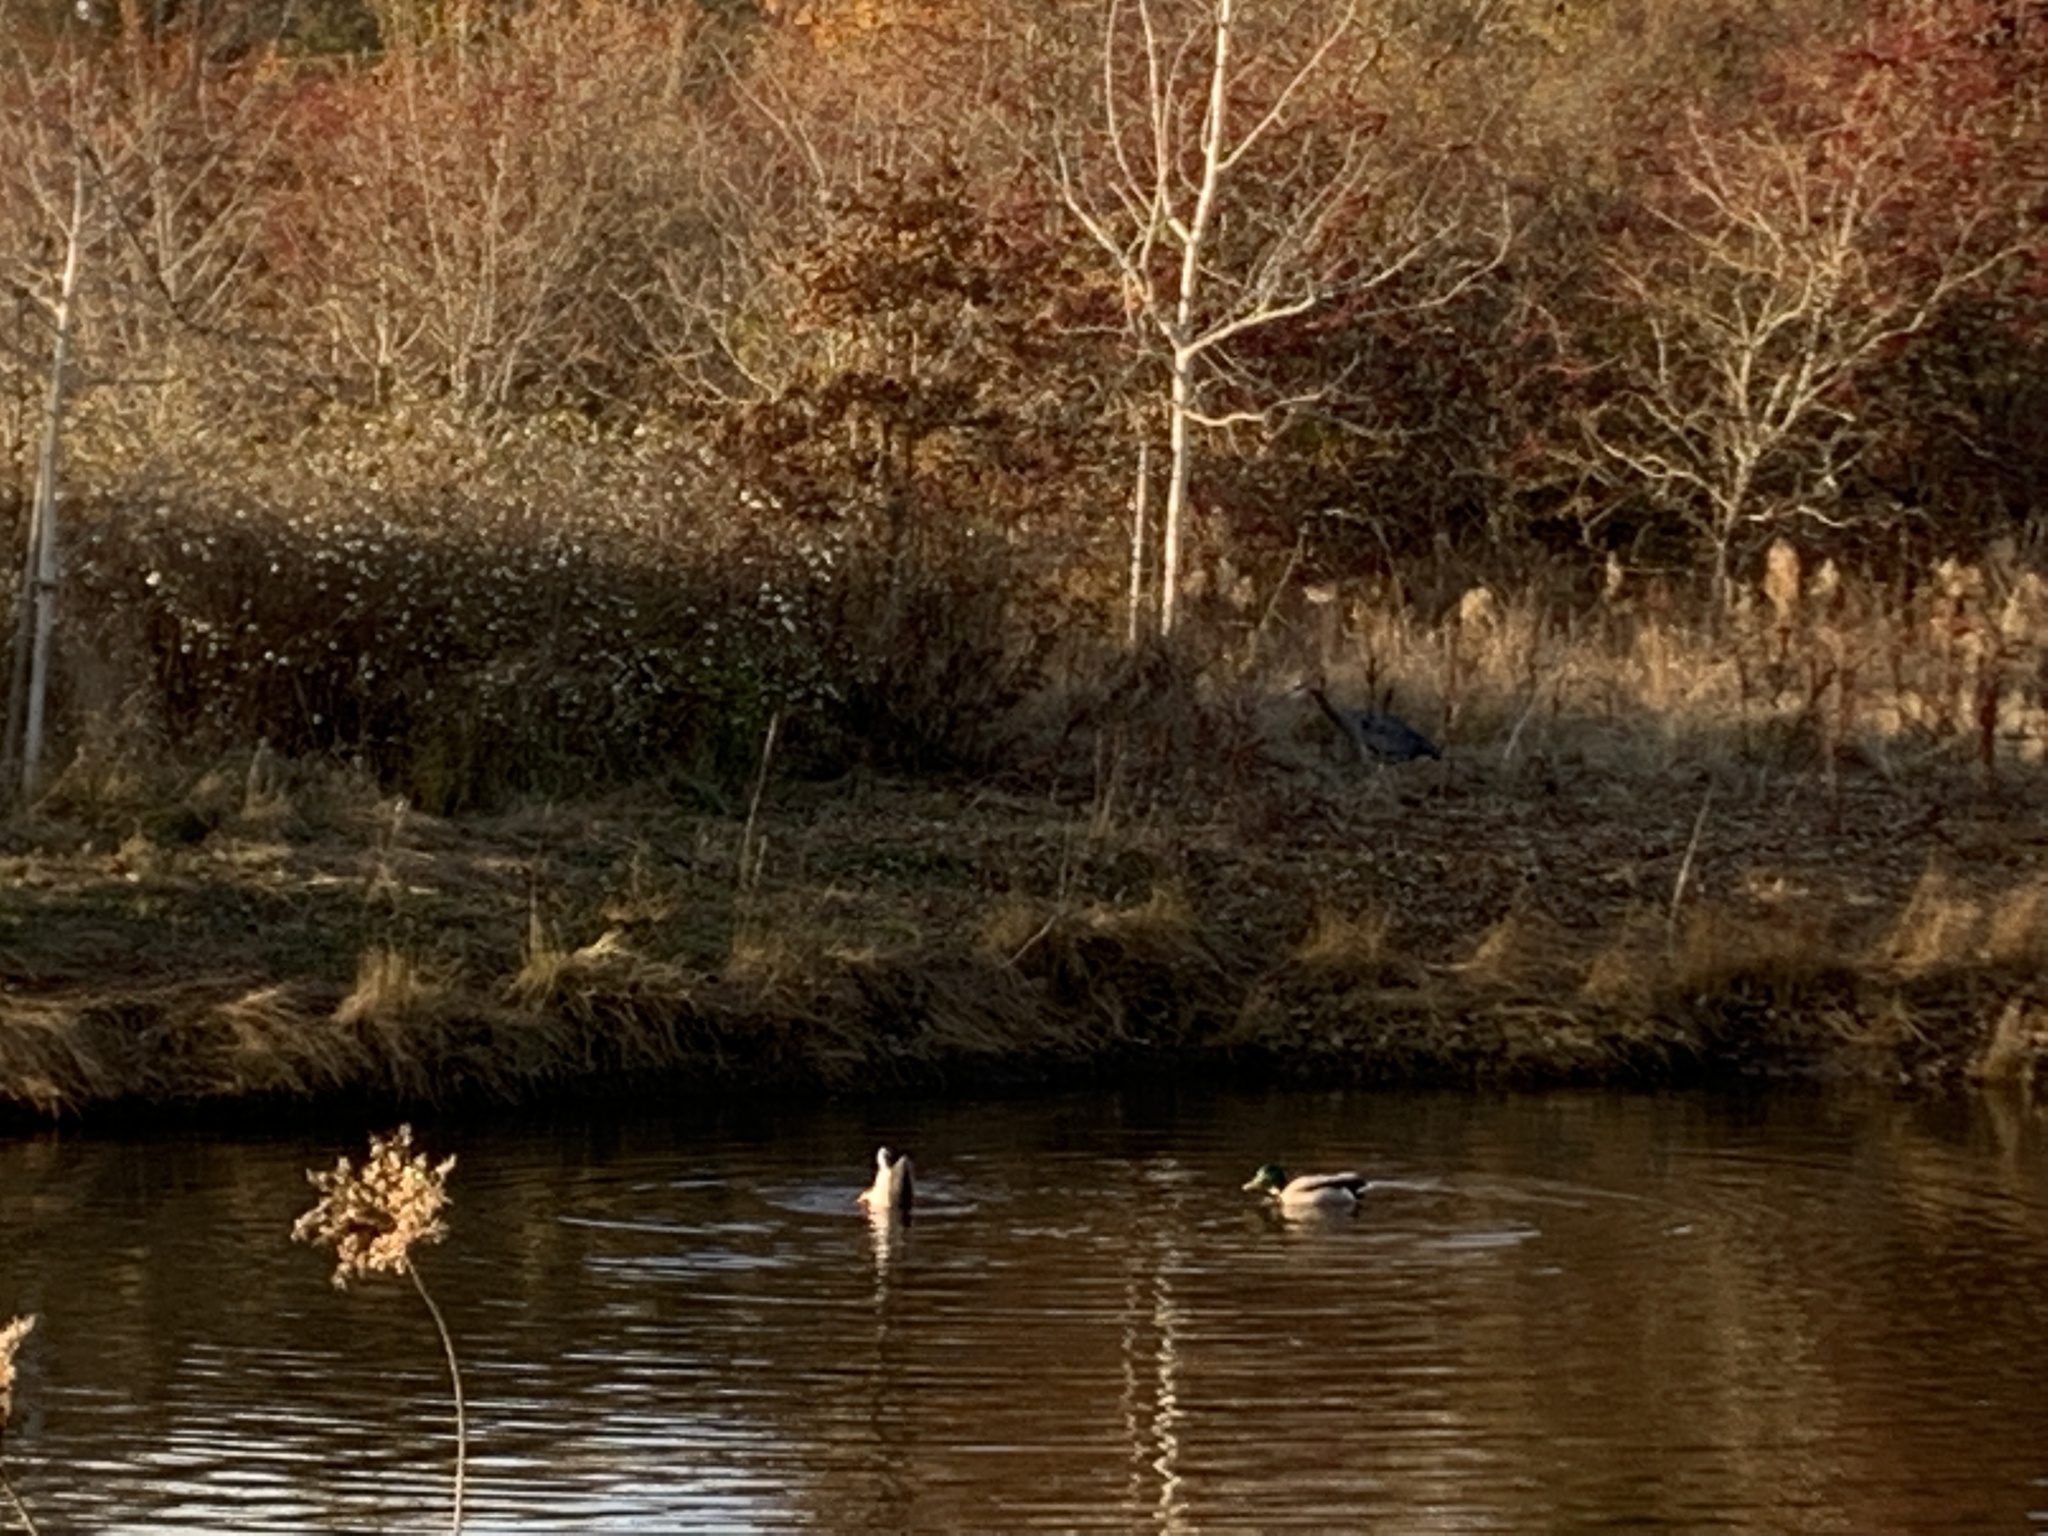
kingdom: Animalia
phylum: Chordata
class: Aves
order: Anseriformes
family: Anatidae
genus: Anas
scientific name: Anas platyrhynchos
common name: Mallard
